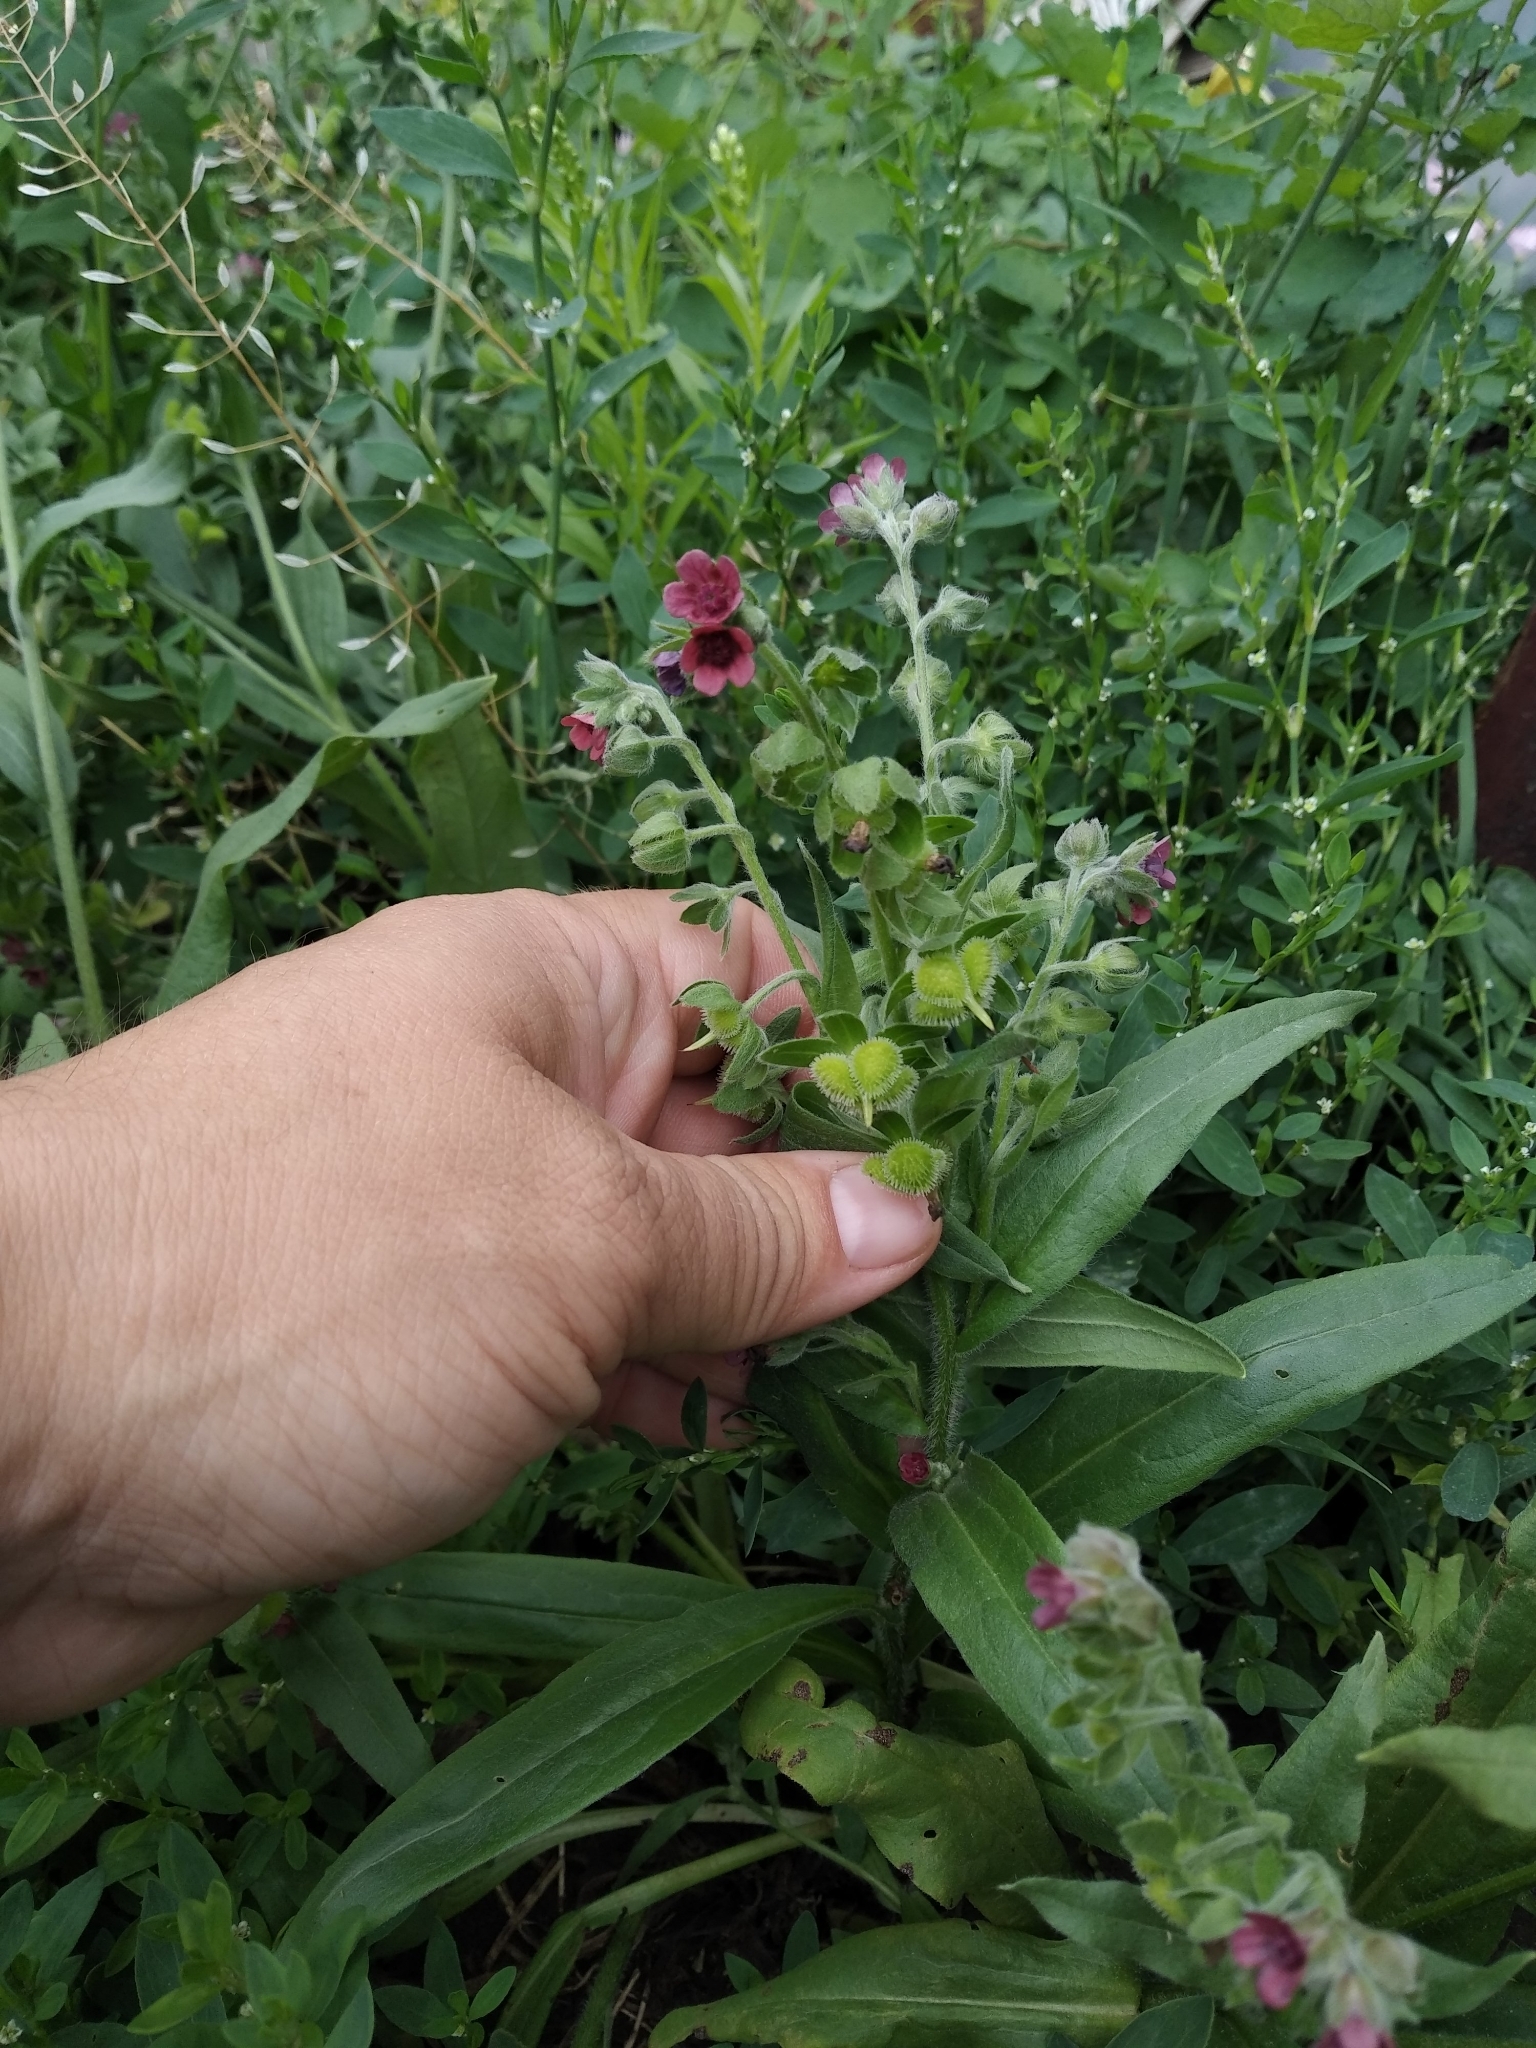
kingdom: Plantae
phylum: Tracheophyta
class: Magnoliopsida
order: Boraginales
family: Boraginaceae
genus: Cynoglossum
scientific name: Cynoglossum officinale
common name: Hound's-tongue
